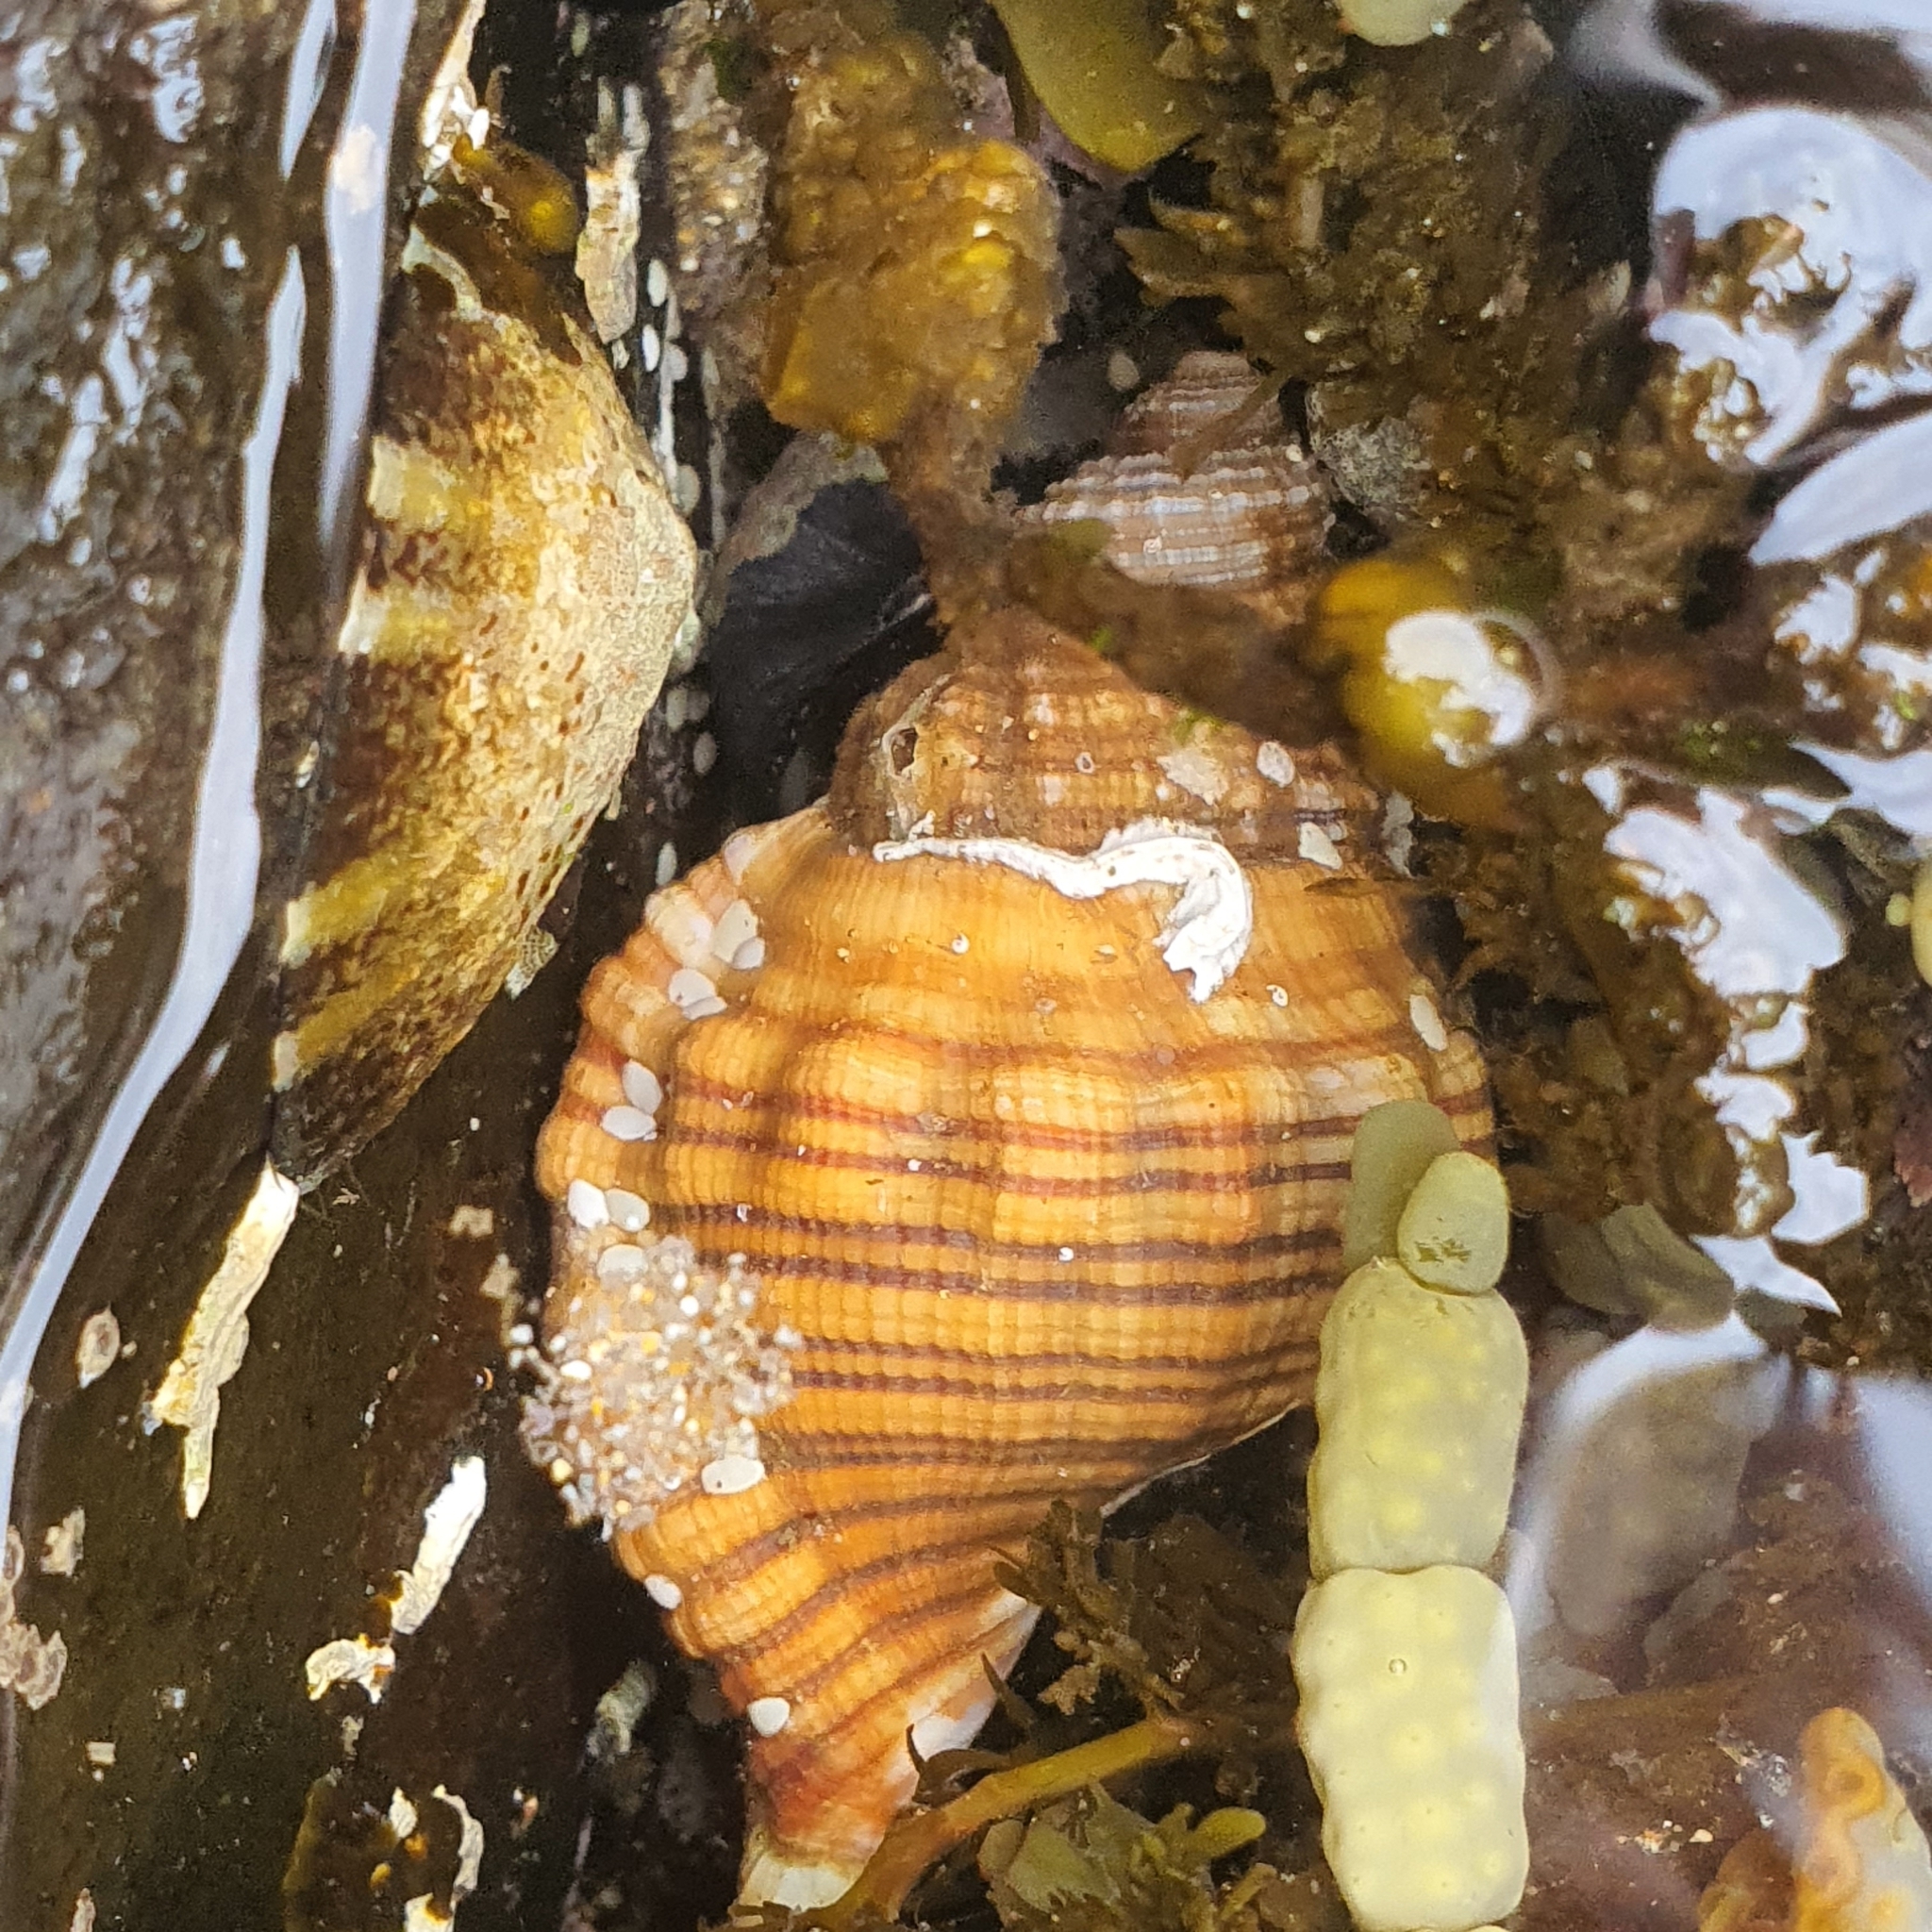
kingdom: Animalia
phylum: Mollusca
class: Gastropoda
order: Littorinimorpha
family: Cymatiidae
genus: Cabestana
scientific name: Cabestana spengleri
